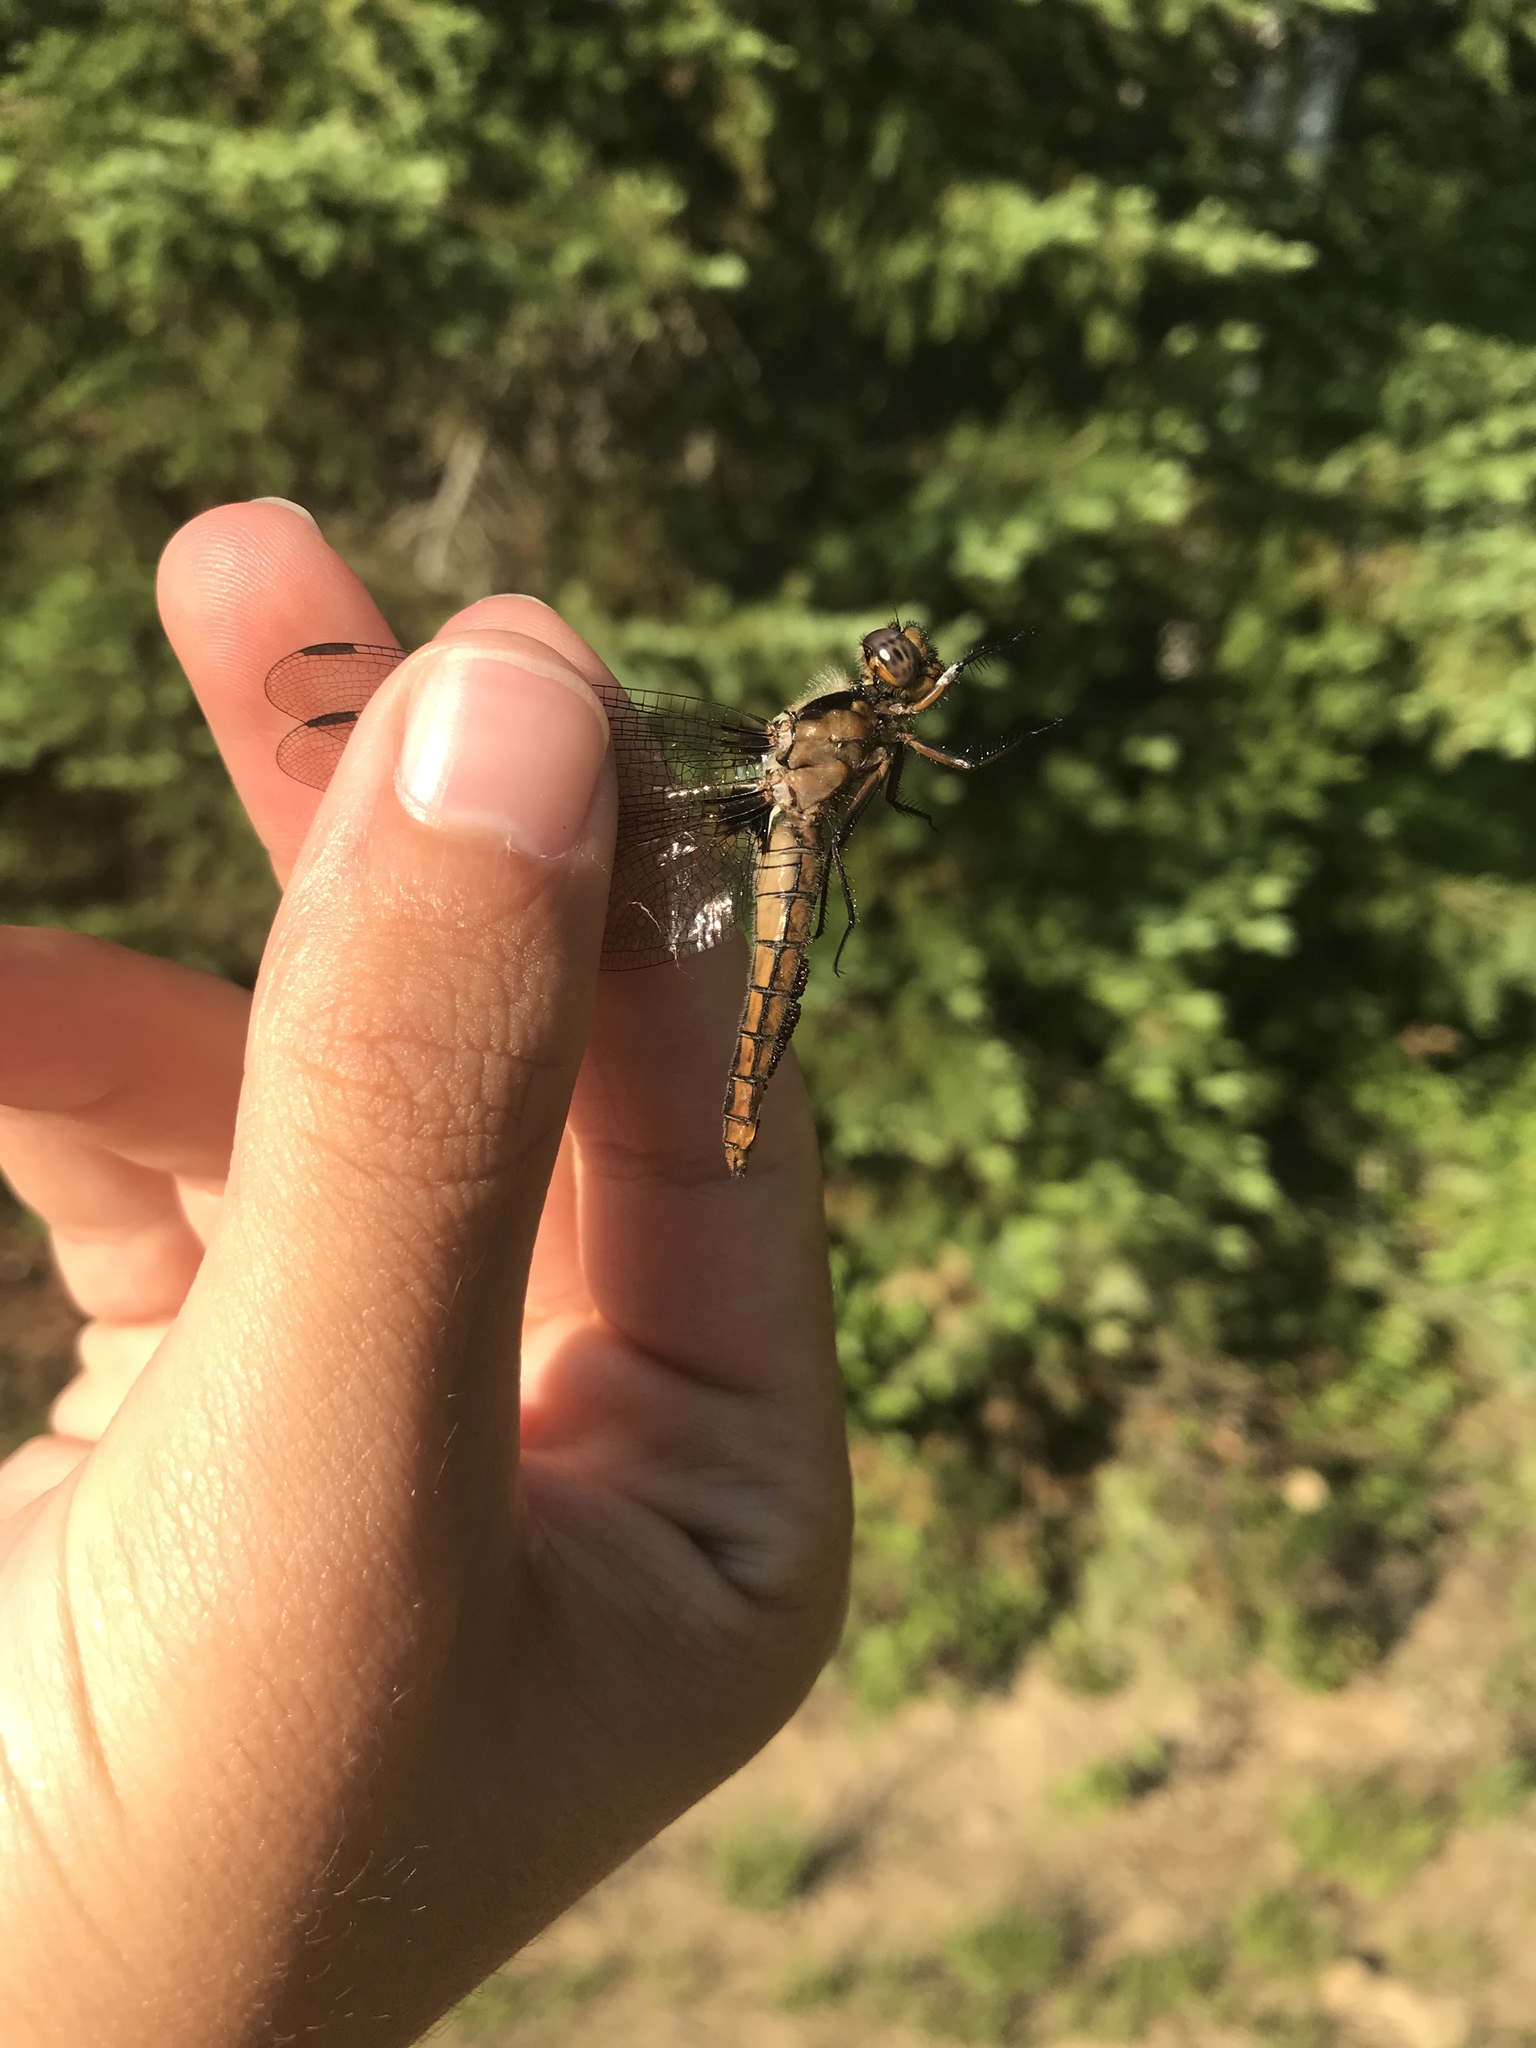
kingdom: Animalia
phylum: Arthropoda
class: Insecta
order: Odonata
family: Libellulidae
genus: Ladona
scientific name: Ladona julia
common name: Chalk-fronted corporal
